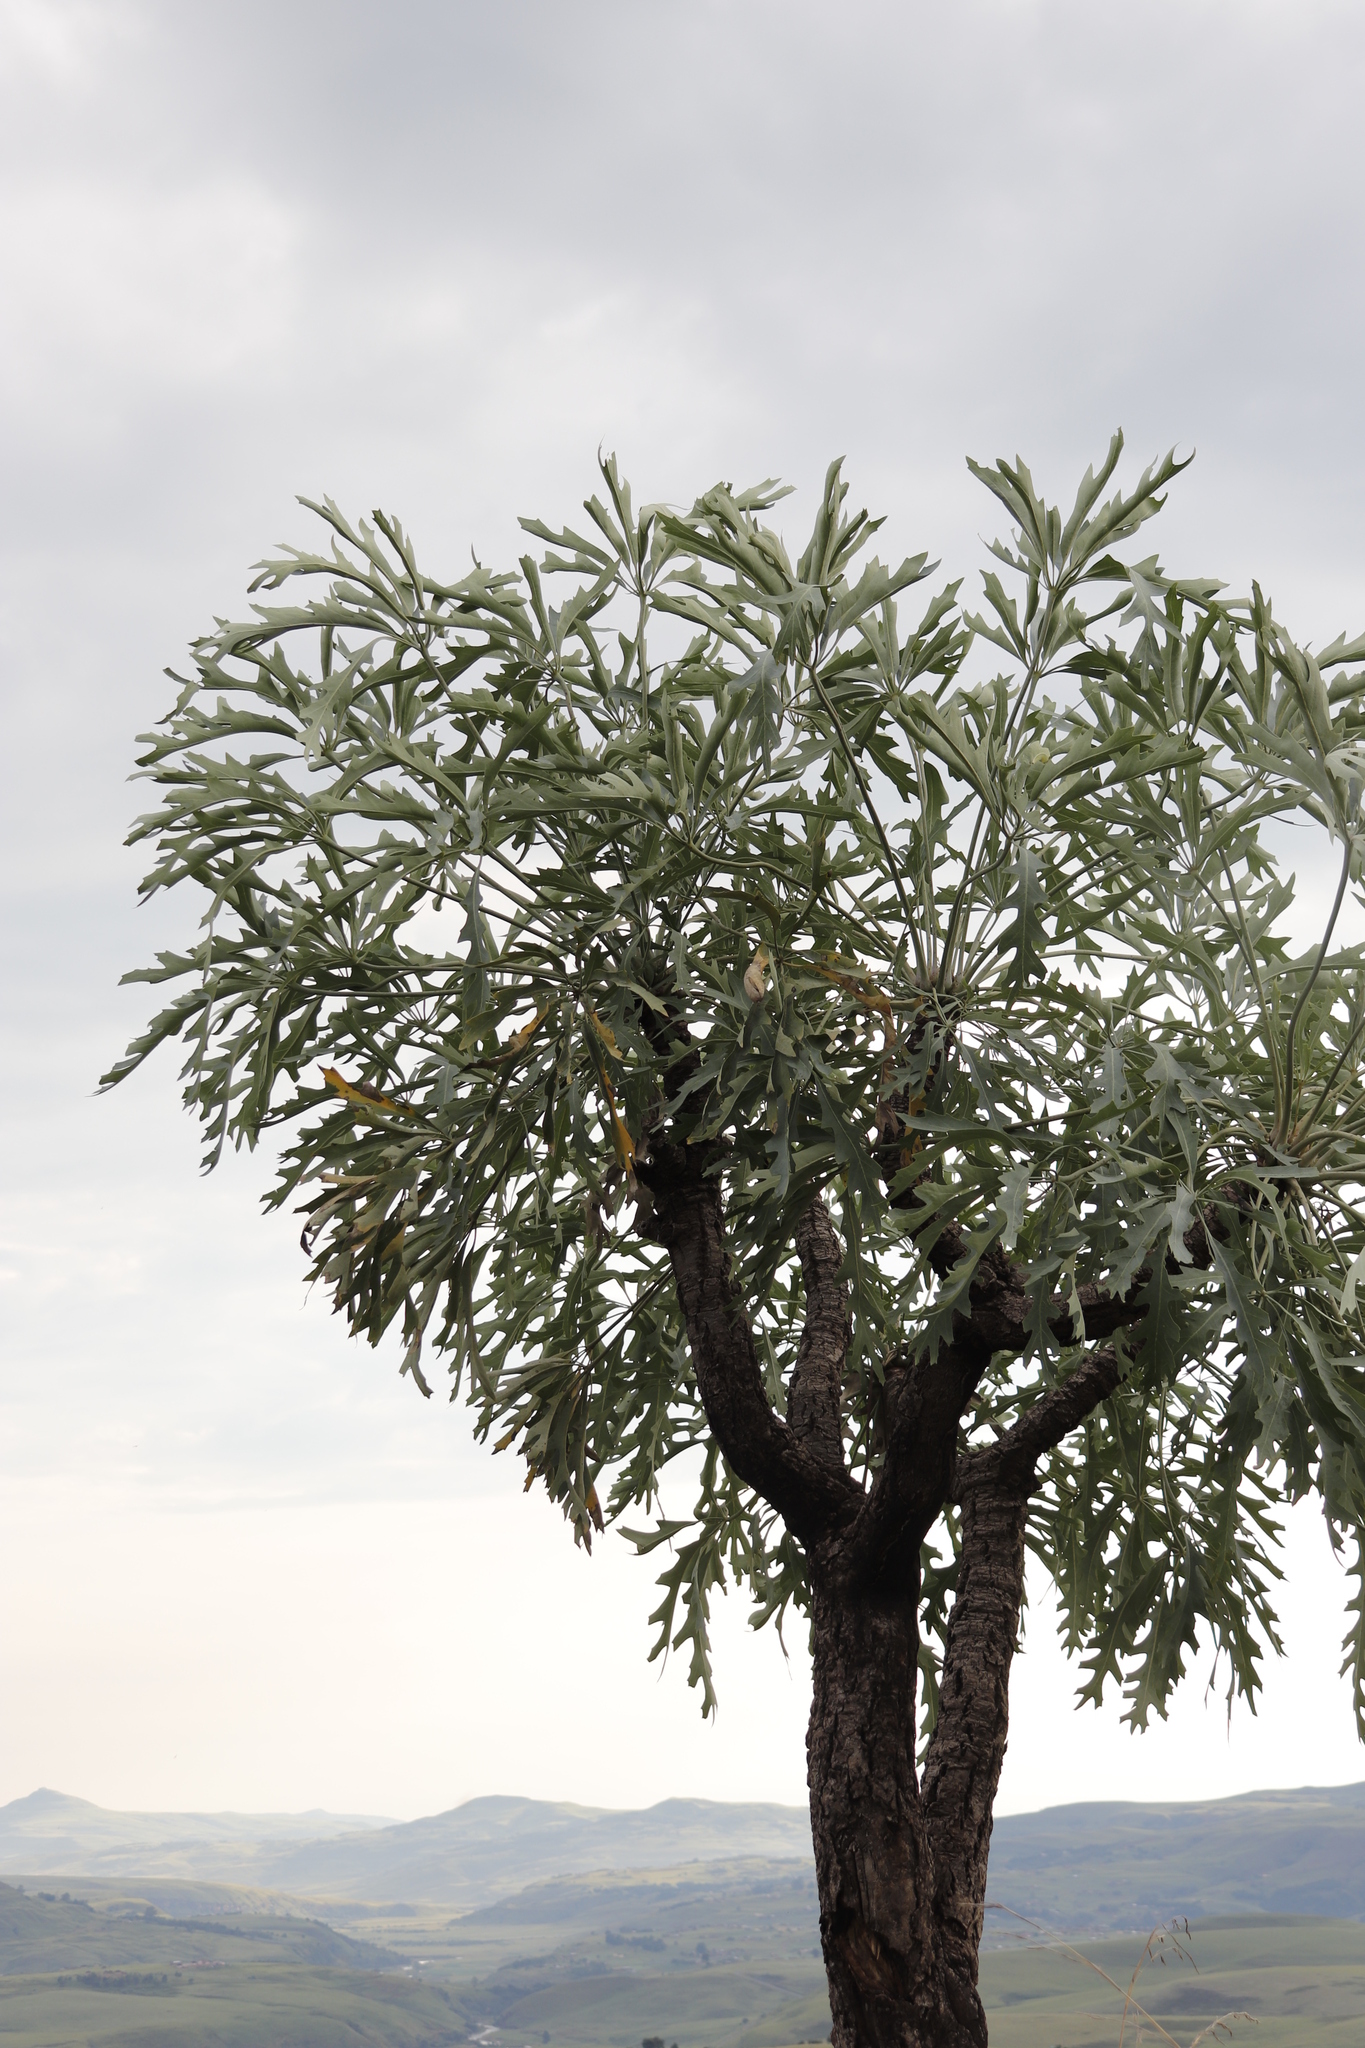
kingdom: Plantae
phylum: Tracheophyta
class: Magnoliopsida
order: Apiales
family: Araliaceae
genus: Cussonia
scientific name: Cussonia spicata
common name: Common cabbagetree
